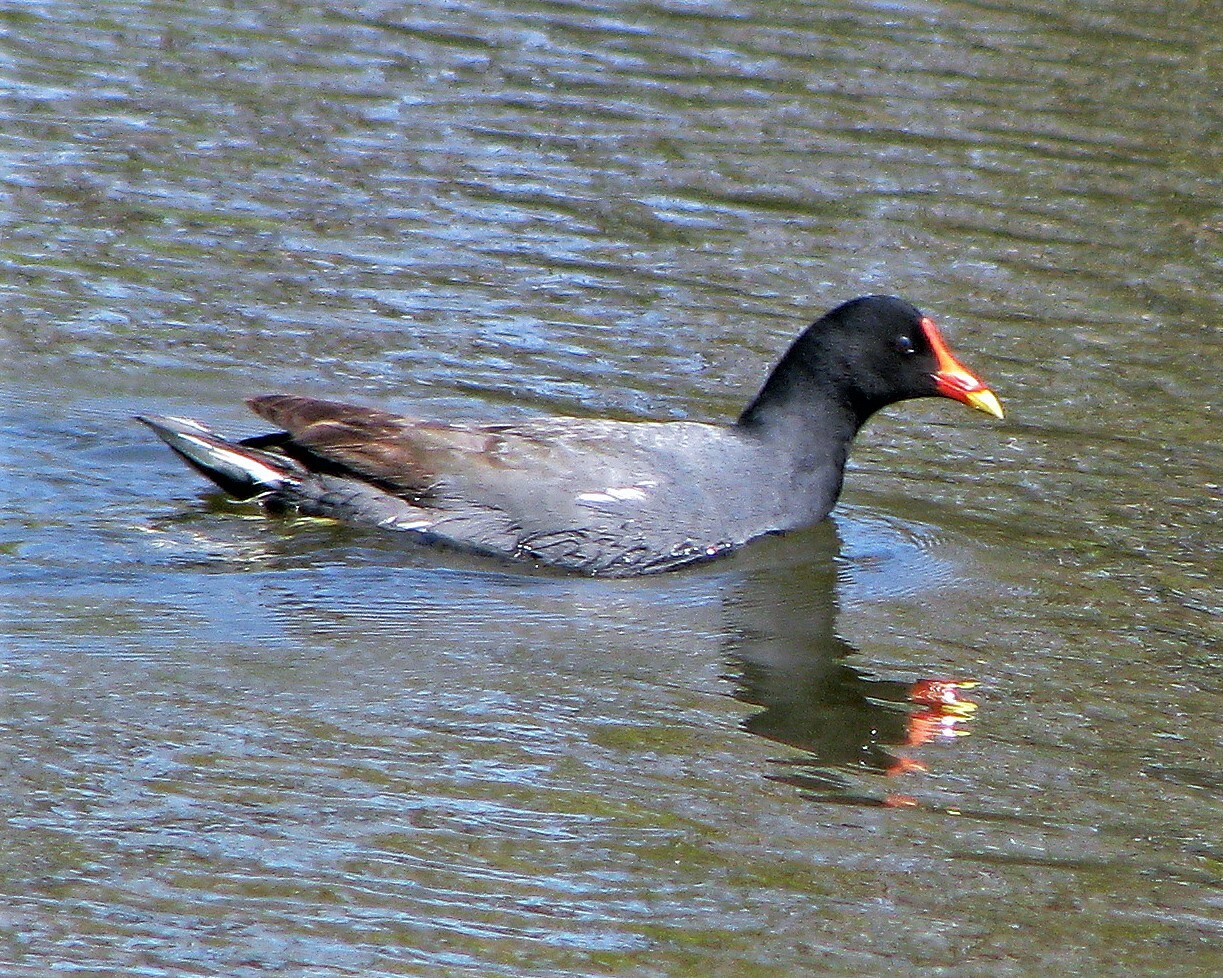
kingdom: Animalia
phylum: Chordata
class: Aves
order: Gruiformes
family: Rallidae
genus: Gallinula
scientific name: Gallinula chloropus
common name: Common moorhen
